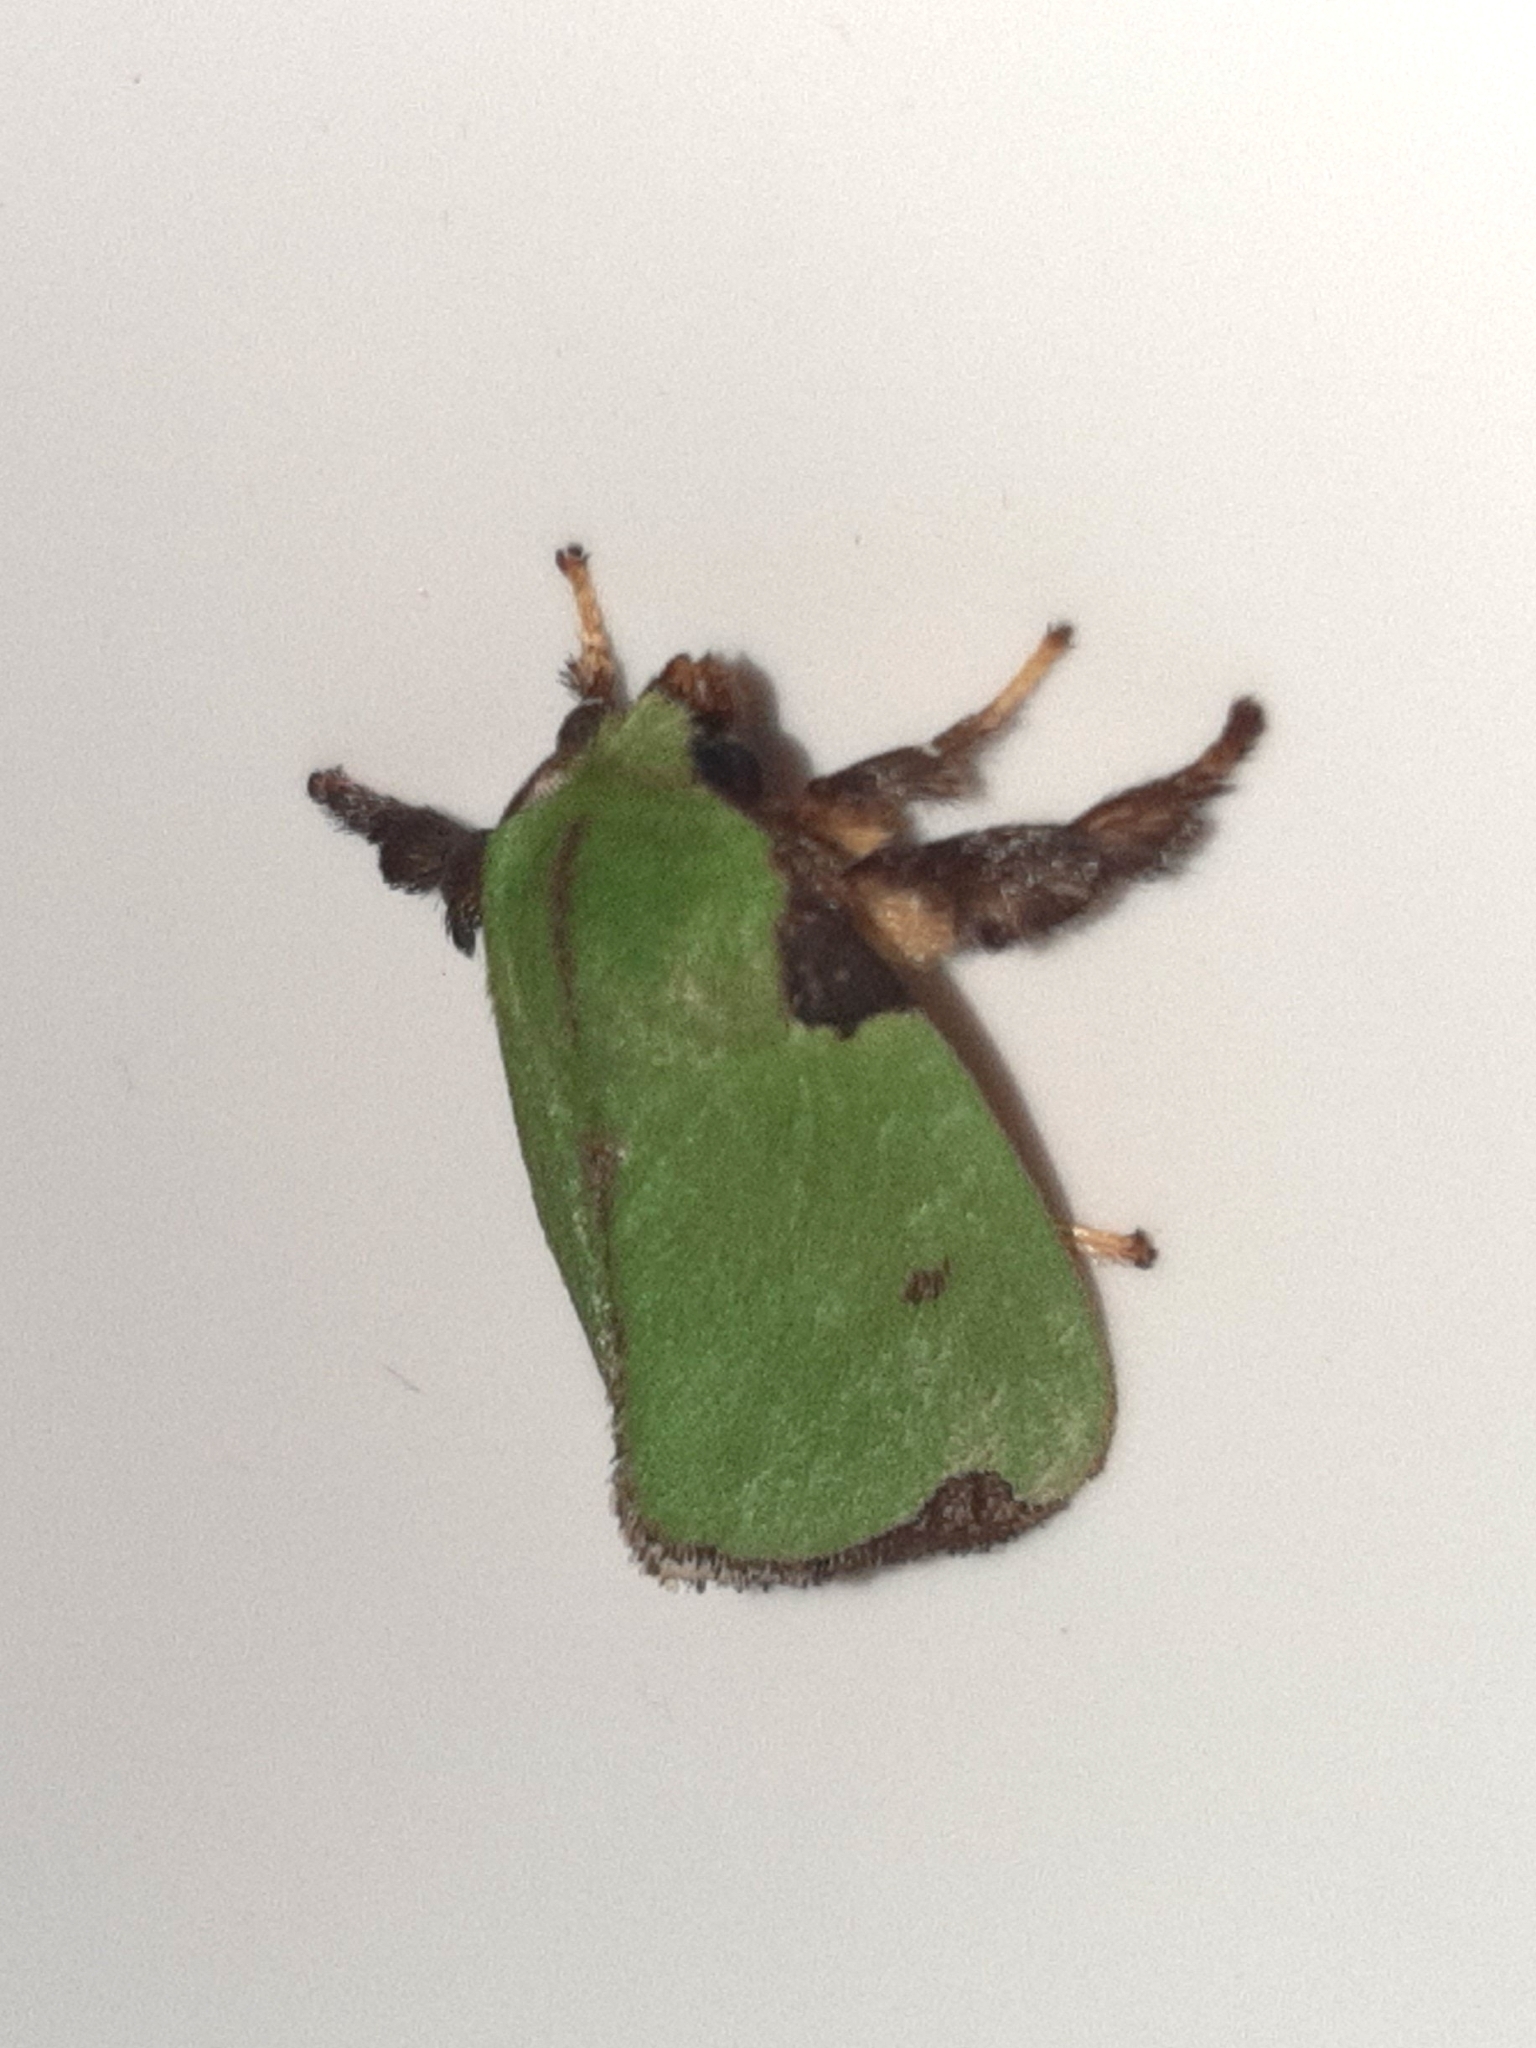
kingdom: Animalia
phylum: Arthropoda
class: Insecta
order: Lepidoptera
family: Limacodidae
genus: Parasa
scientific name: Parasa wellesca
